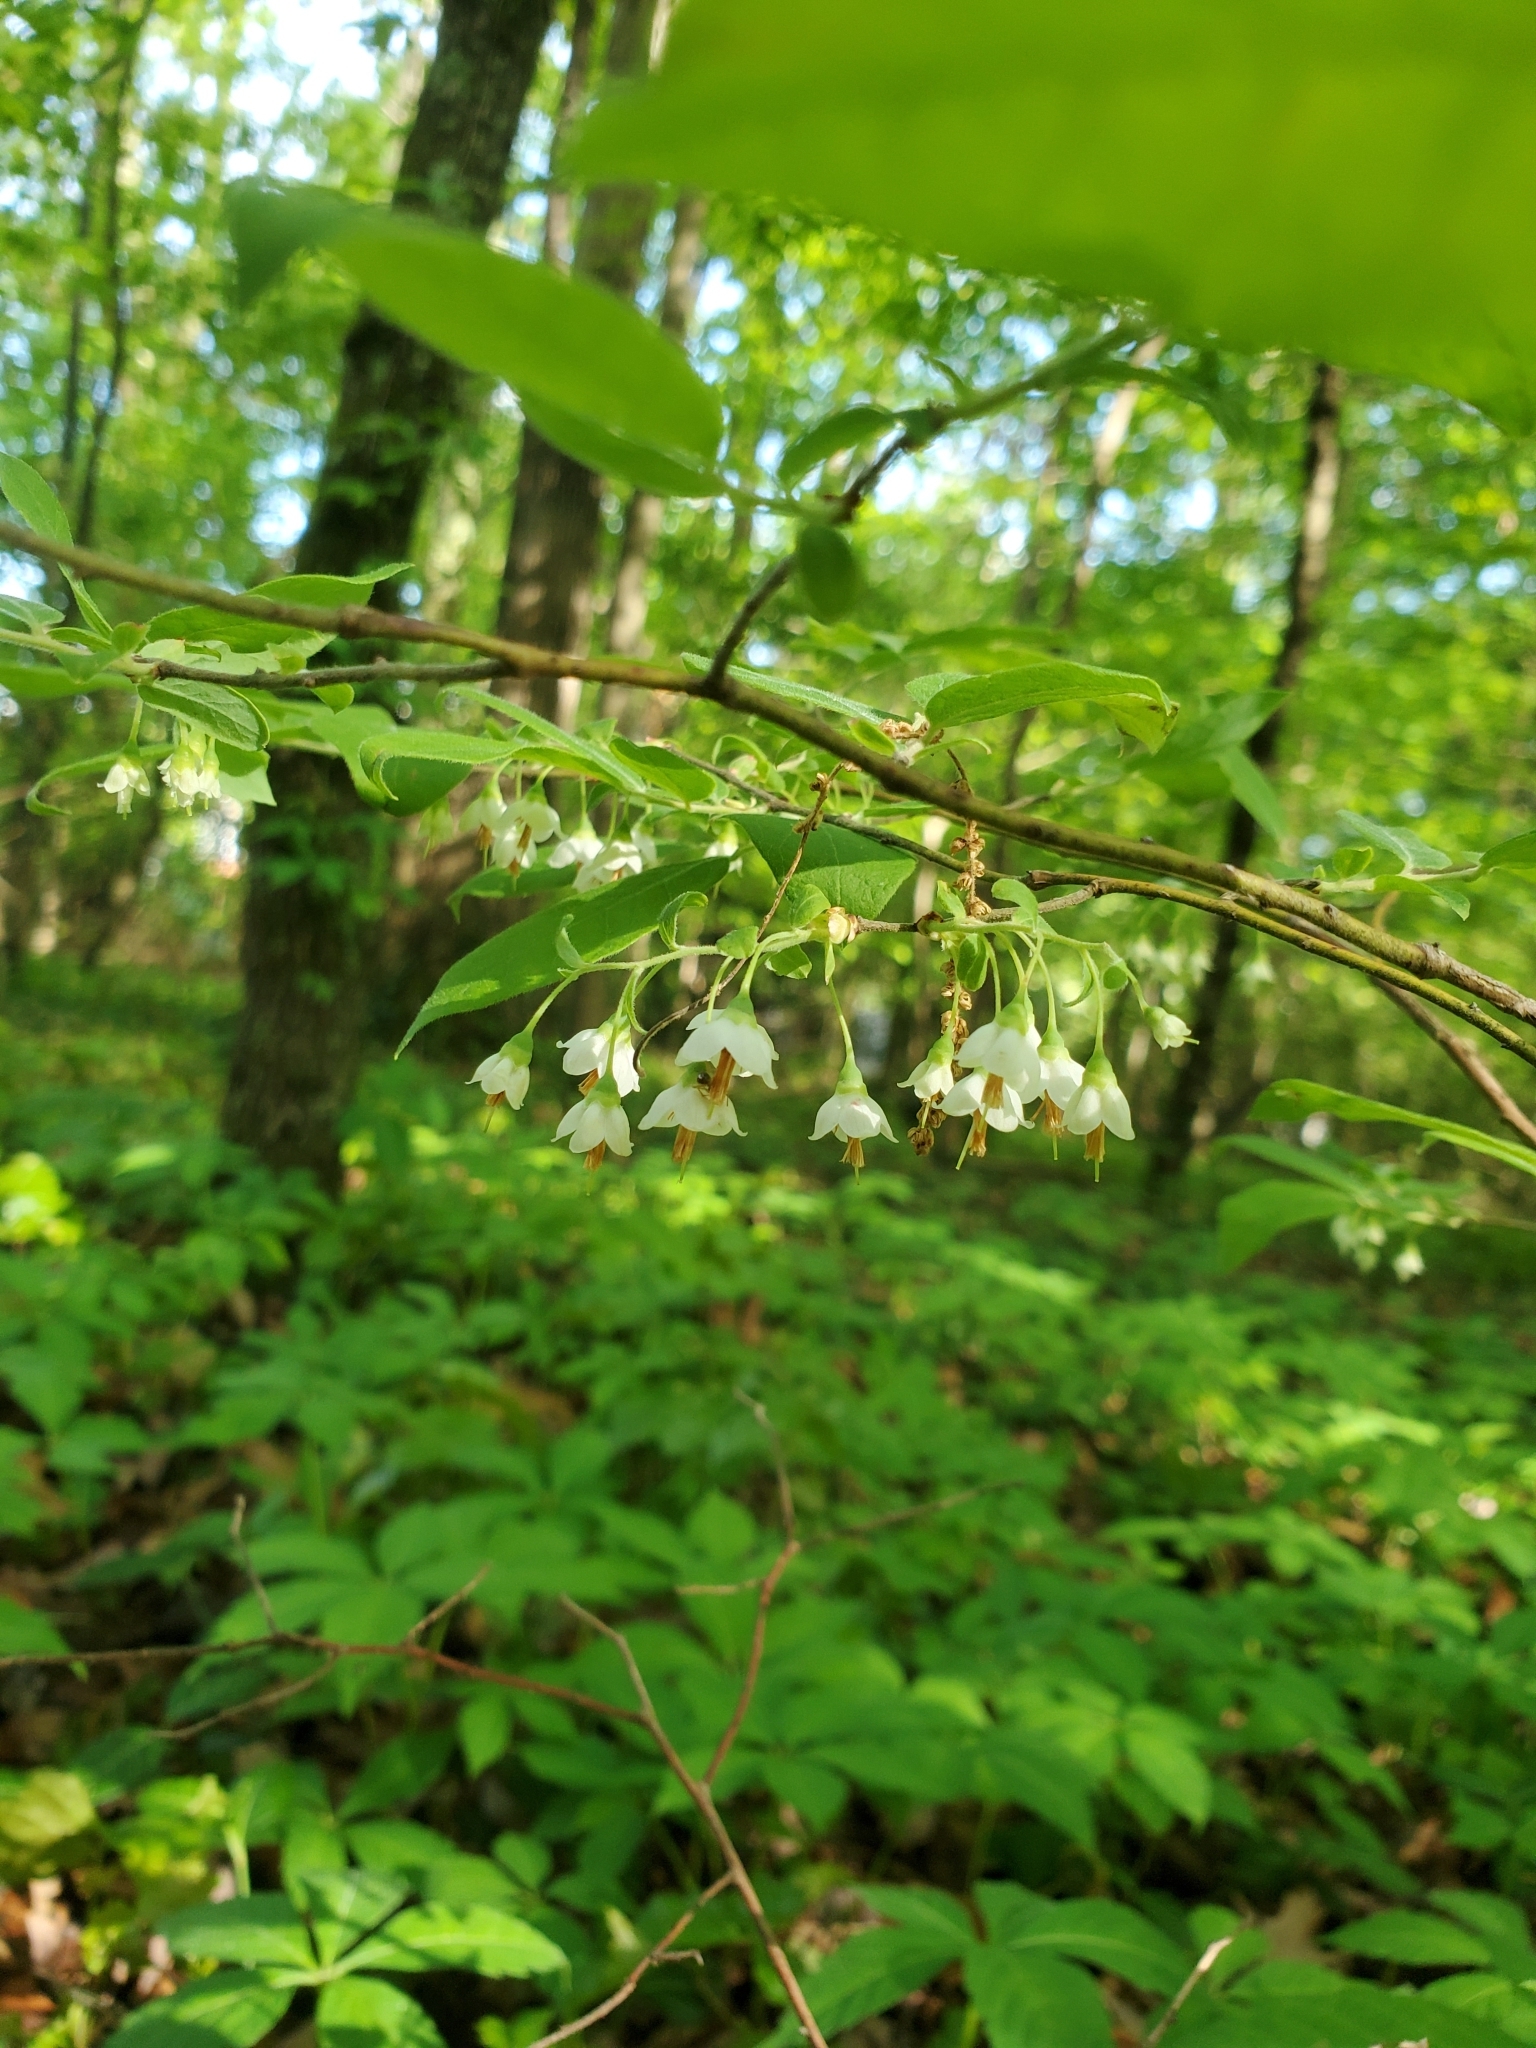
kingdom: Plantae
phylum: Tracheophyta
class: Magnoliopsida
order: Ericales
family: Ericaceae
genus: Vaccinium
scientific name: Vaccinium stamineum
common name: Deerberry
